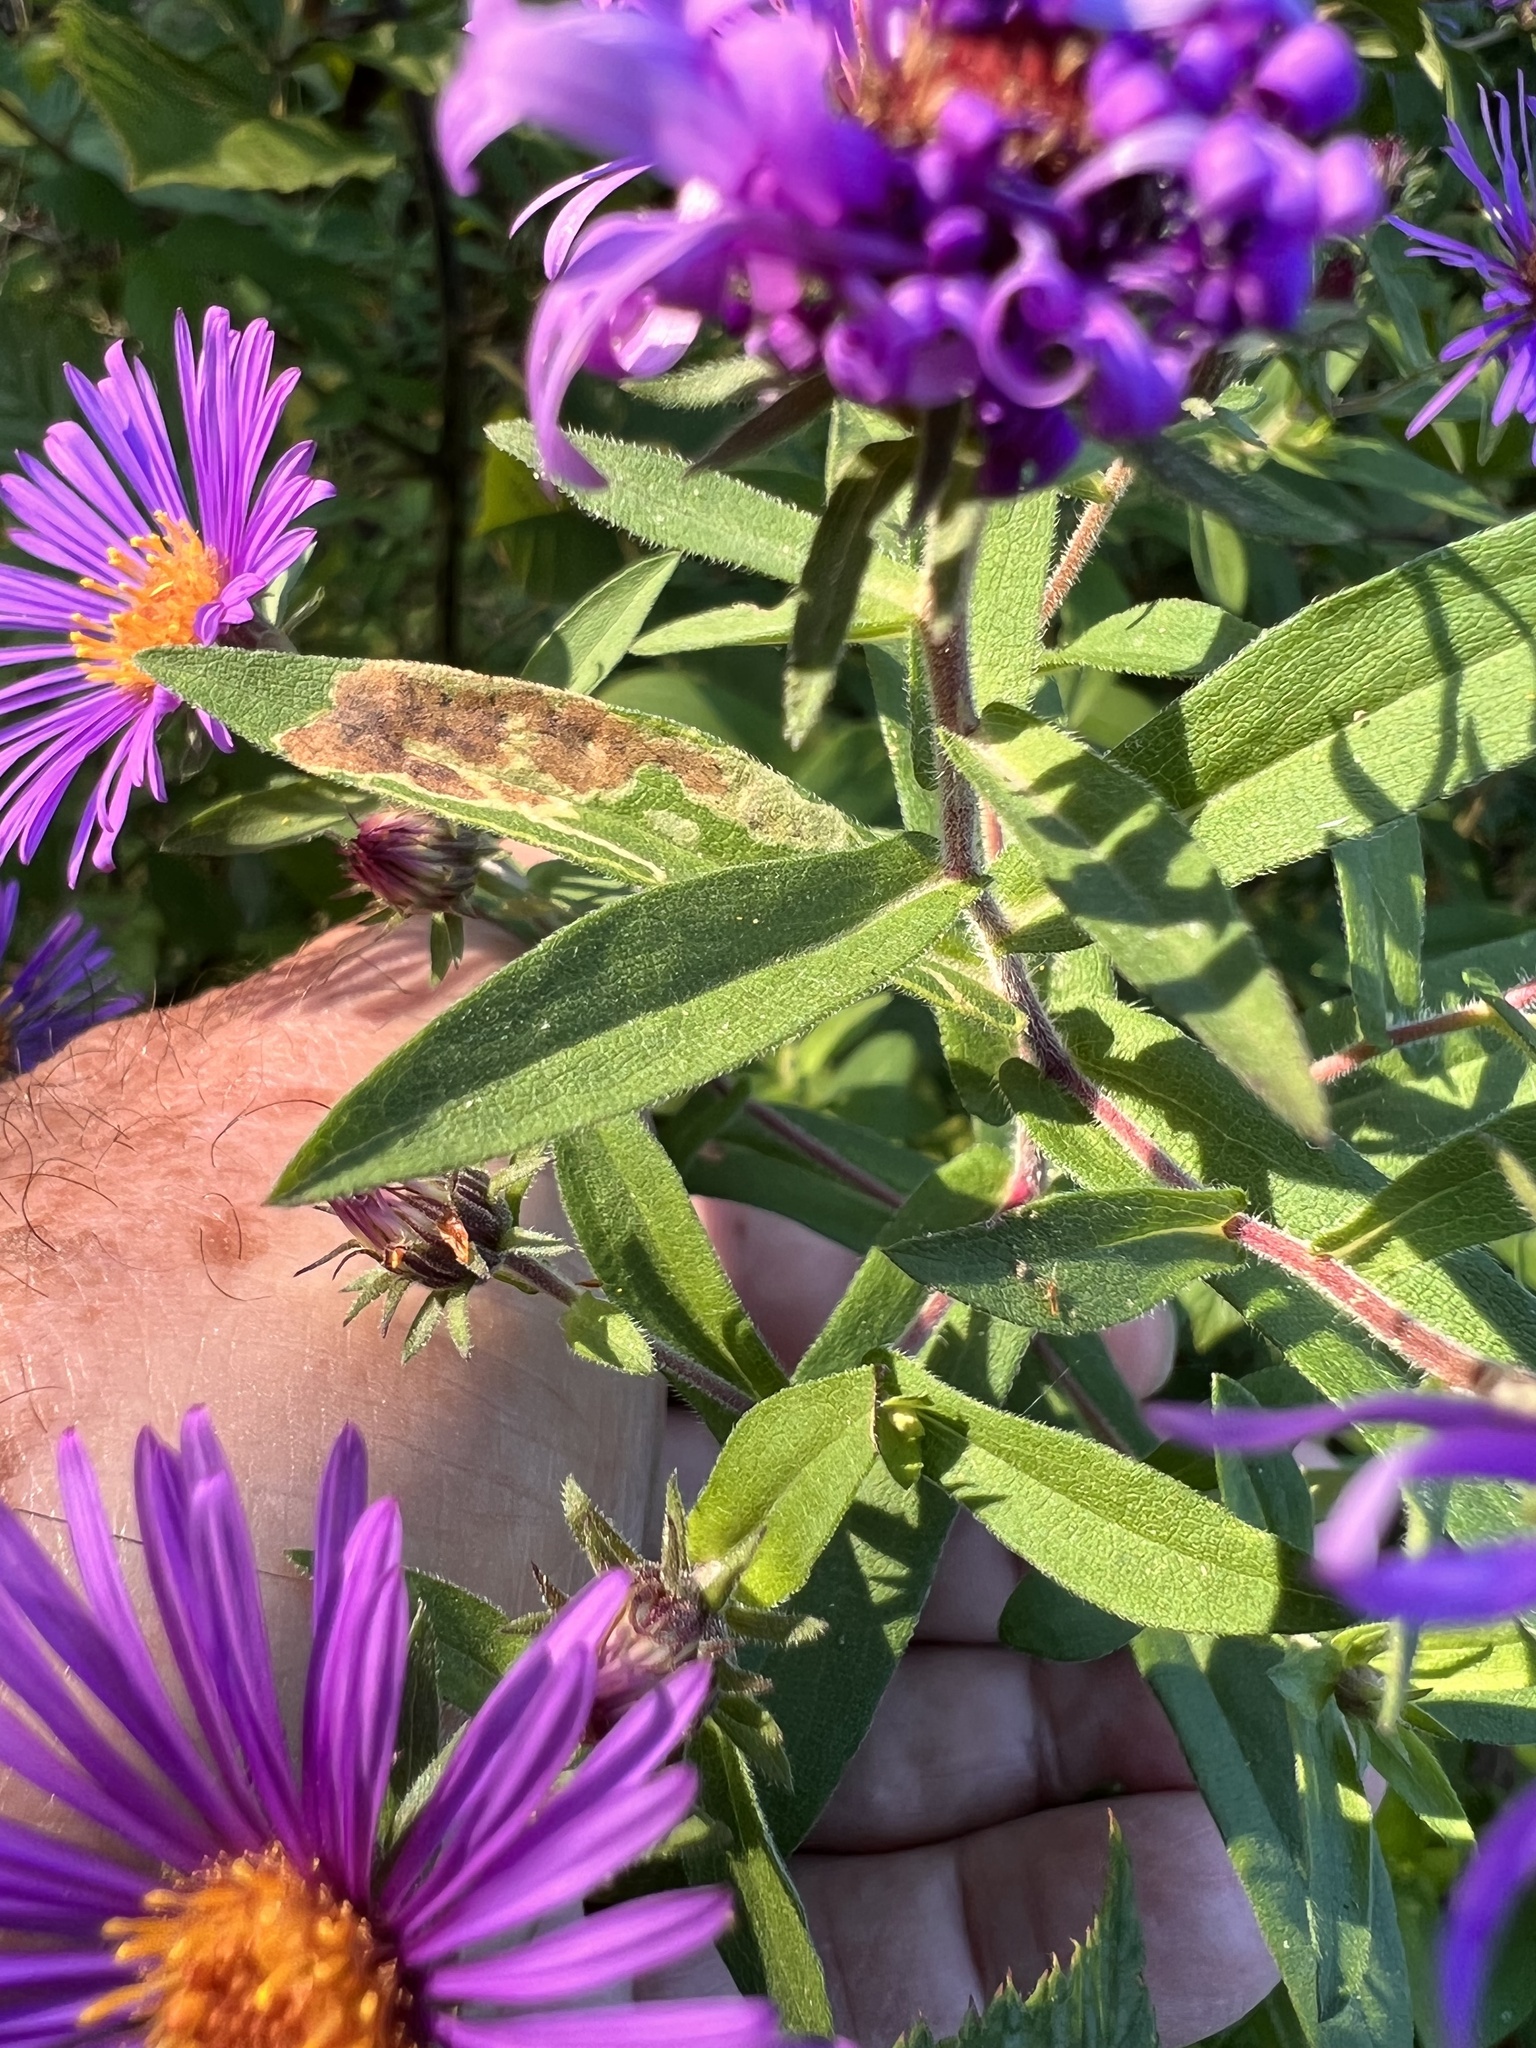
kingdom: Plantae
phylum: Tracheophyta
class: Magnoliopsida
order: Asterales
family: Asteraceae
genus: Symphyotrichum
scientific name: Symphyotrichum novae-angliae
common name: Michaelmas daisy
